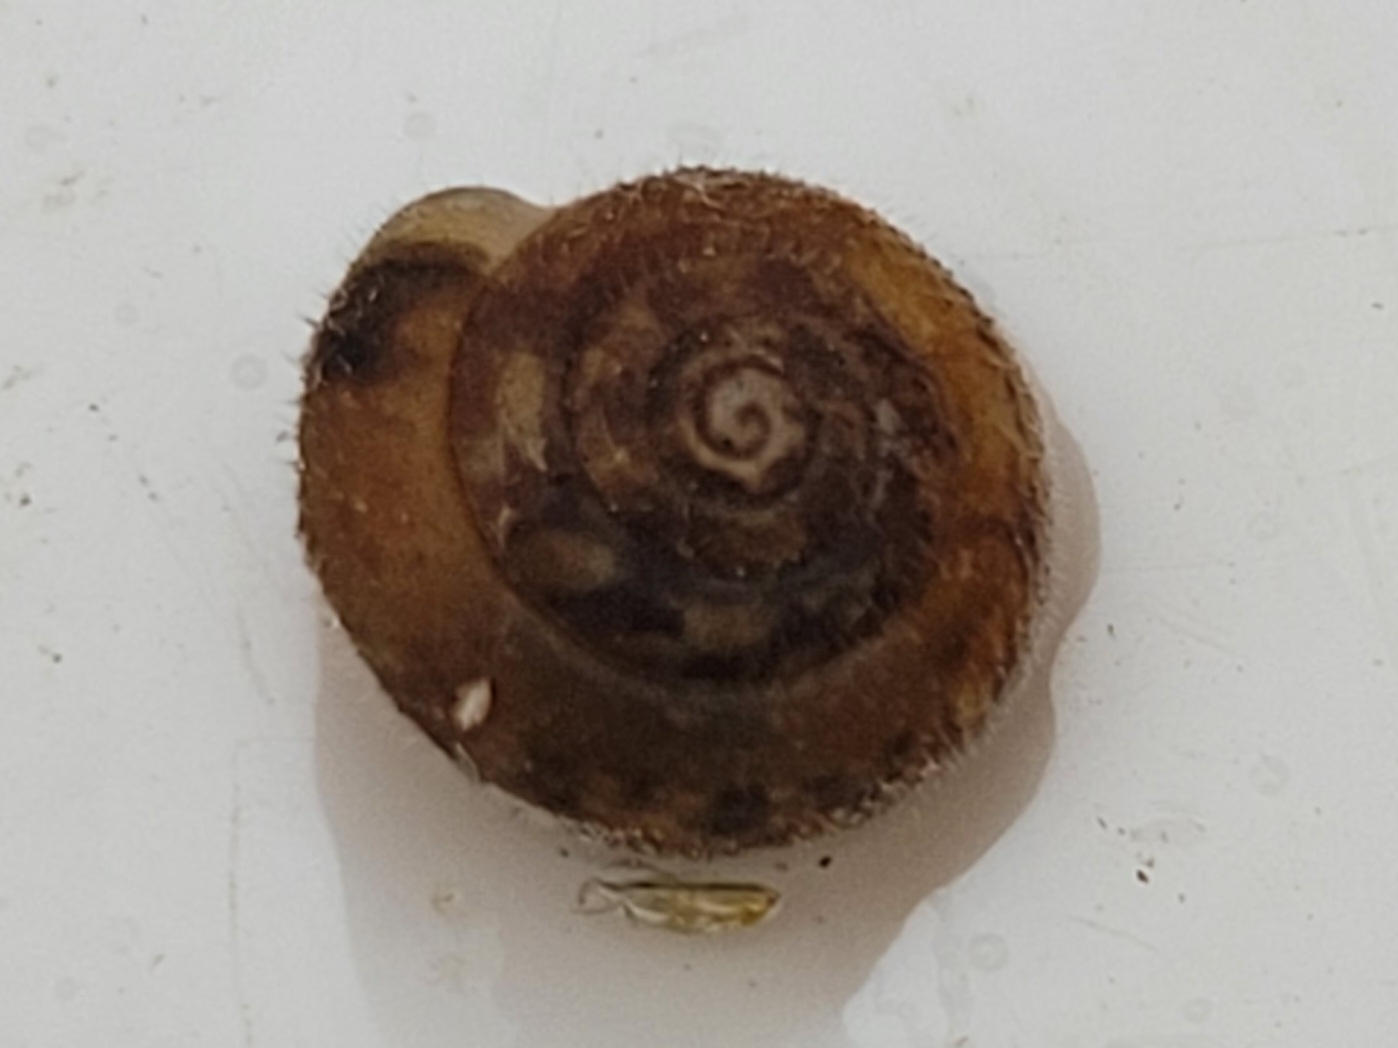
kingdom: Animalia
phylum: Mollusca
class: Gastropoda
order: Stylommatophora
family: Hygromiidae
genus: Trochulus
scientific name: Trochulus hispidus
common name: Hairy snail
